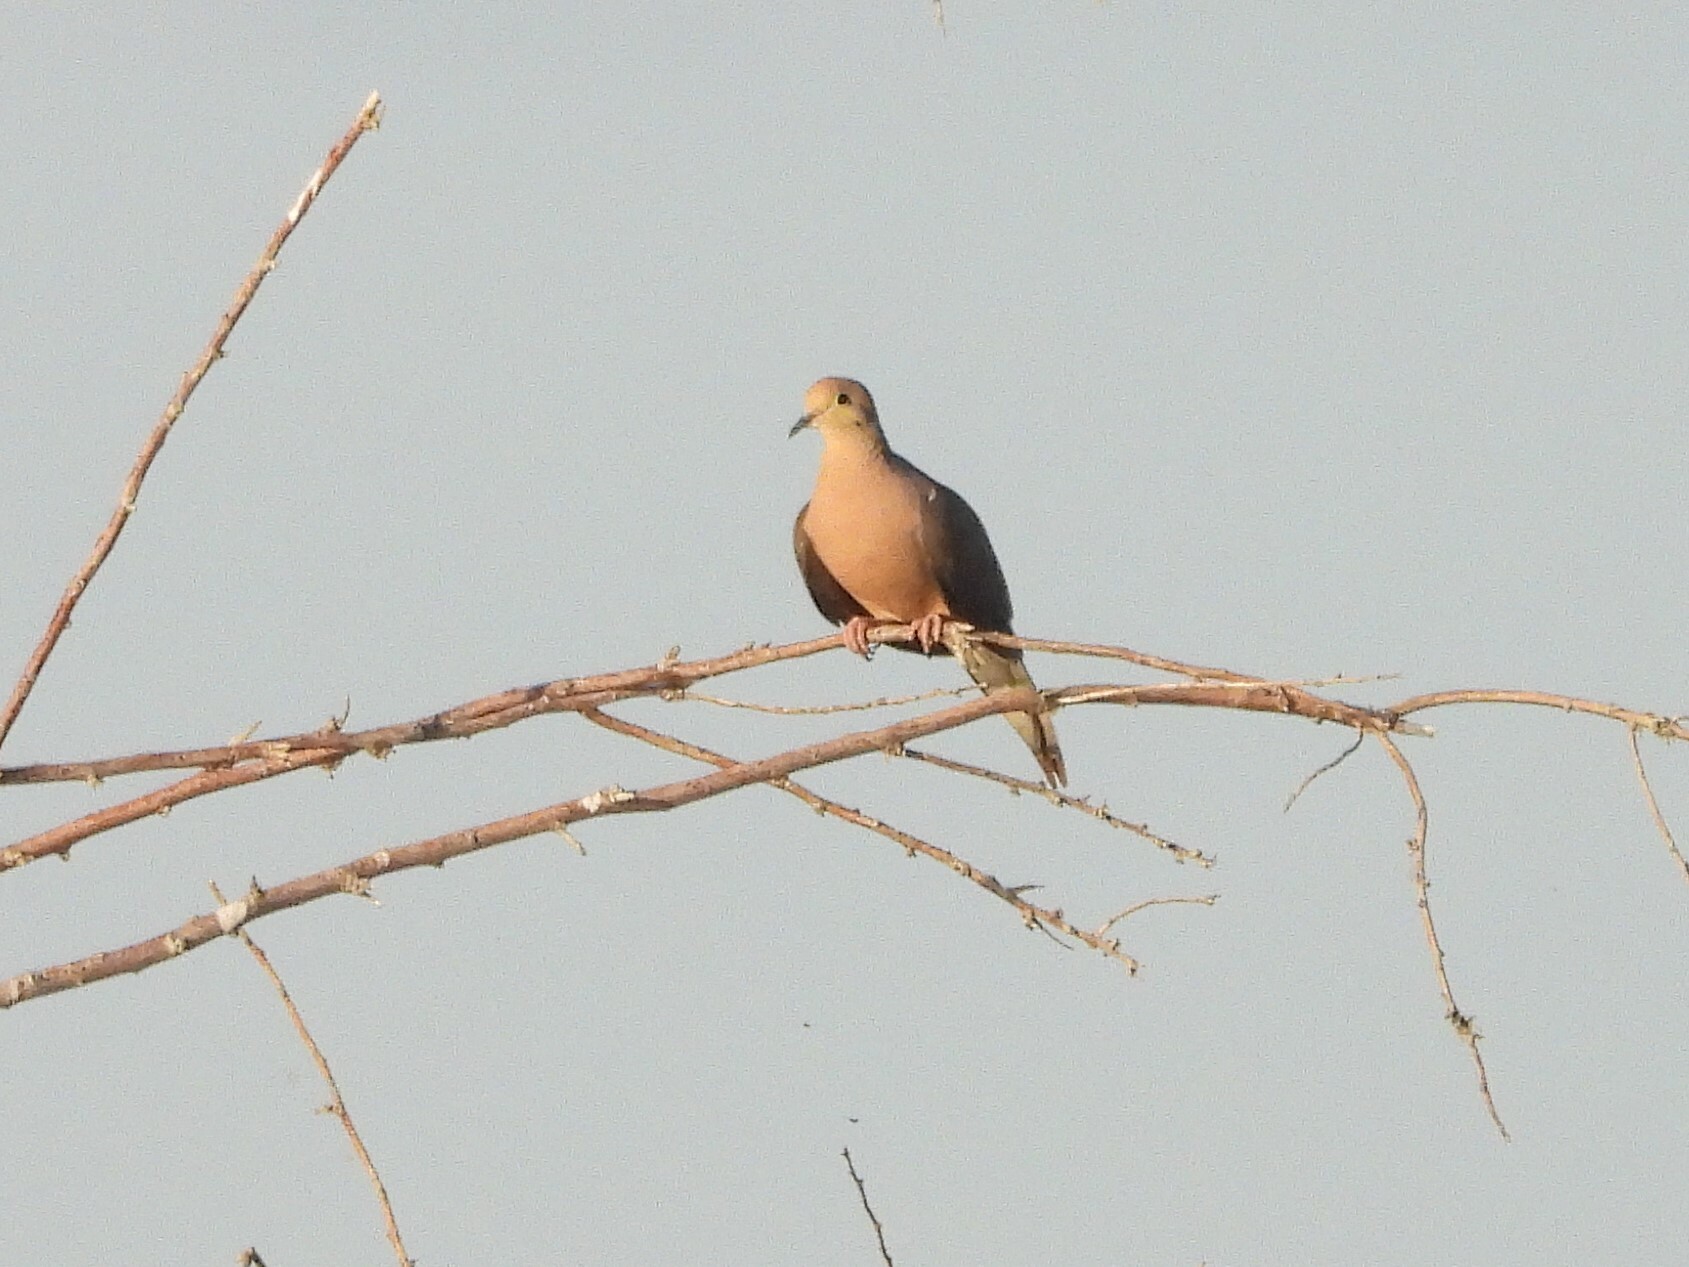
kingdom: Animalia
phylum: Chordata
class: Aves
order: Columbiformes
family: Columbidae
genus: Zenaida
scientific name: Zenaida macroura
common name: Mourning dove
